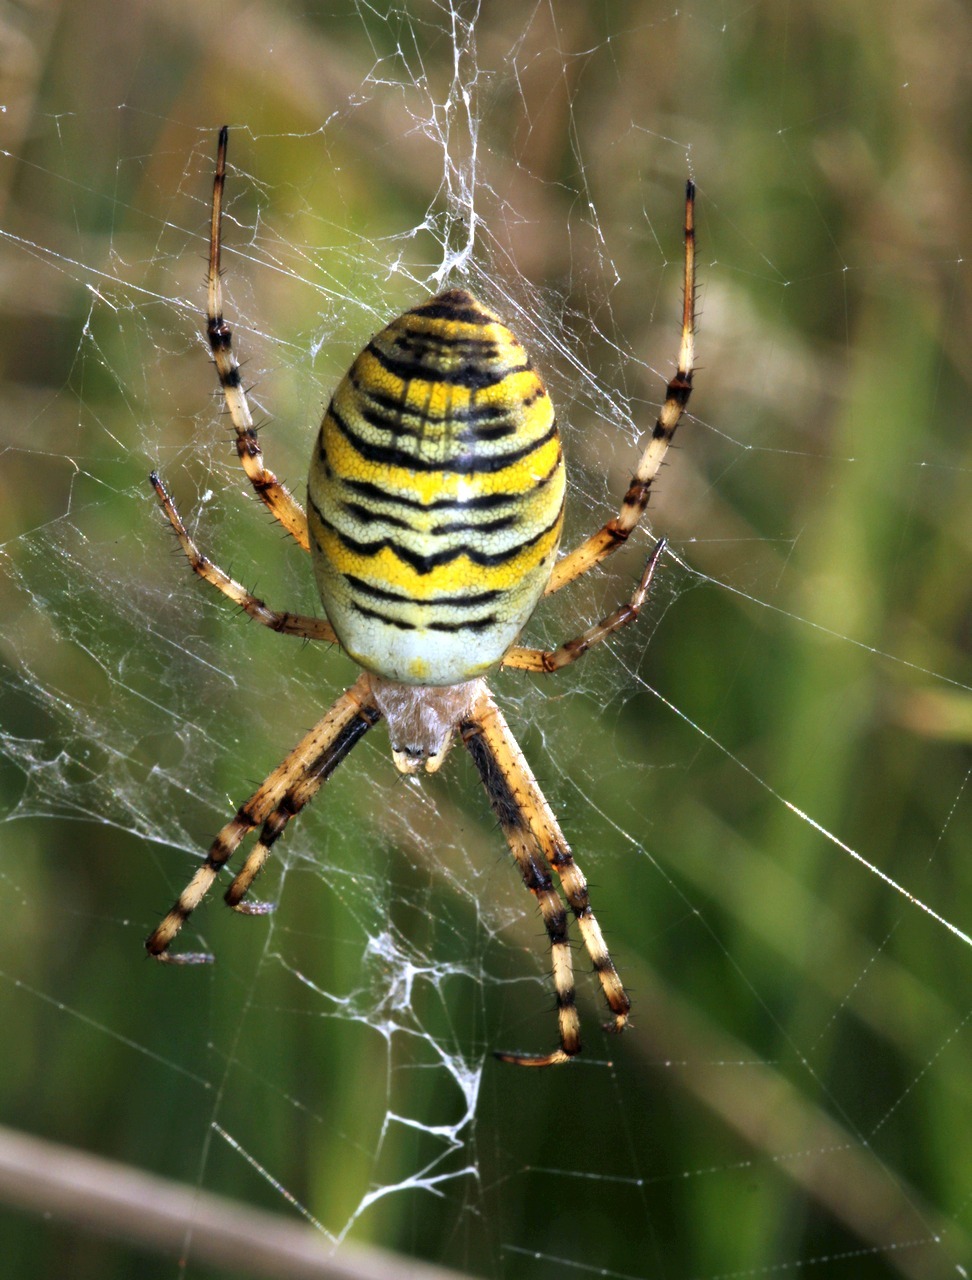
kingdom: Animalia
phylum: Arthropoda
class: Arachnida
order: Araneae
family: Araneidae
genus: Argiope
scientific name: Argiope bruennichi
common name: Wasp spider
